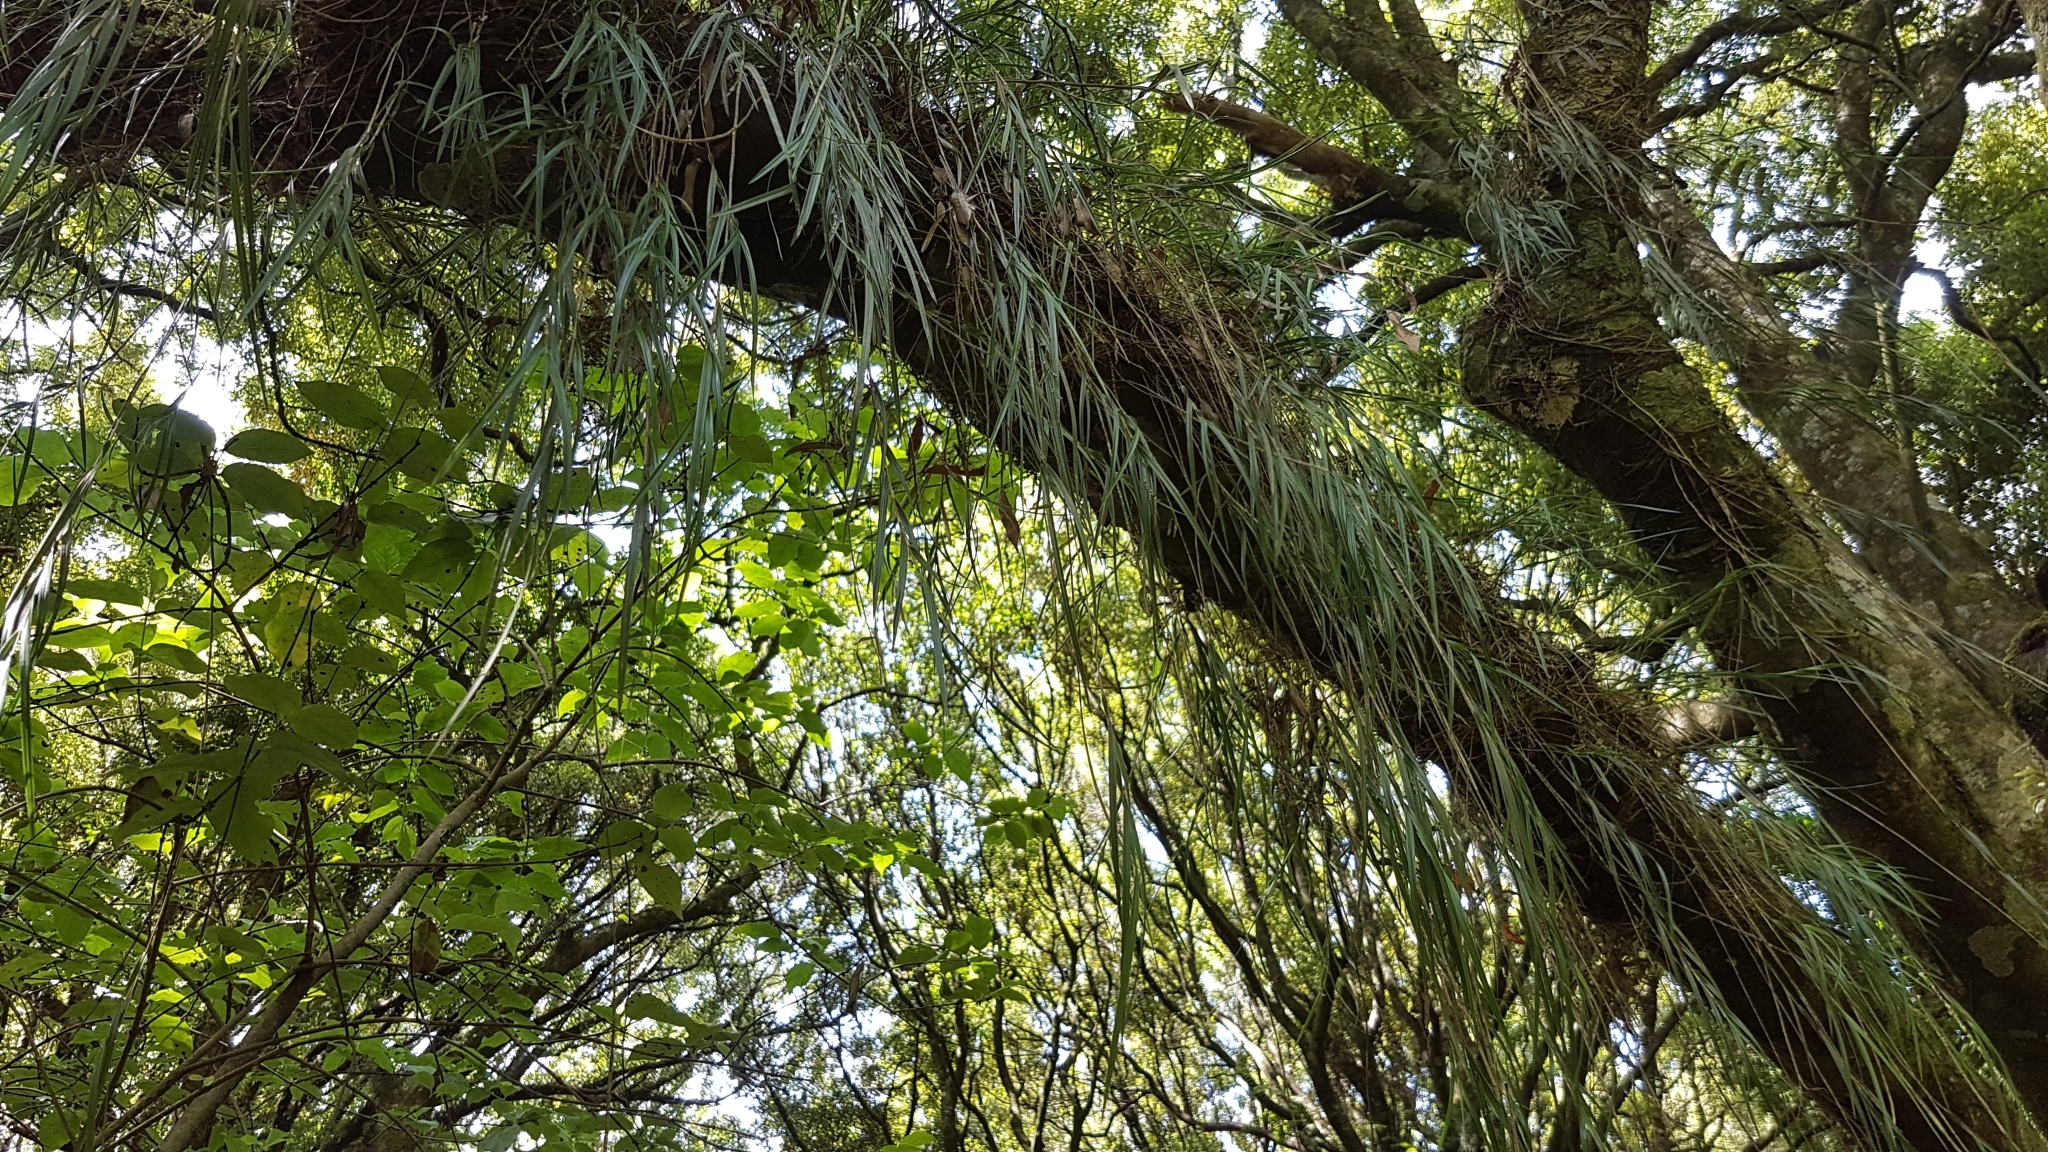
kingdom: Plantae
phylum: Tracheophyta
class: Liliopsida
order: Asparagales
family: Orchidaceae
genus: Earina
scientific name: Earina mucronata
